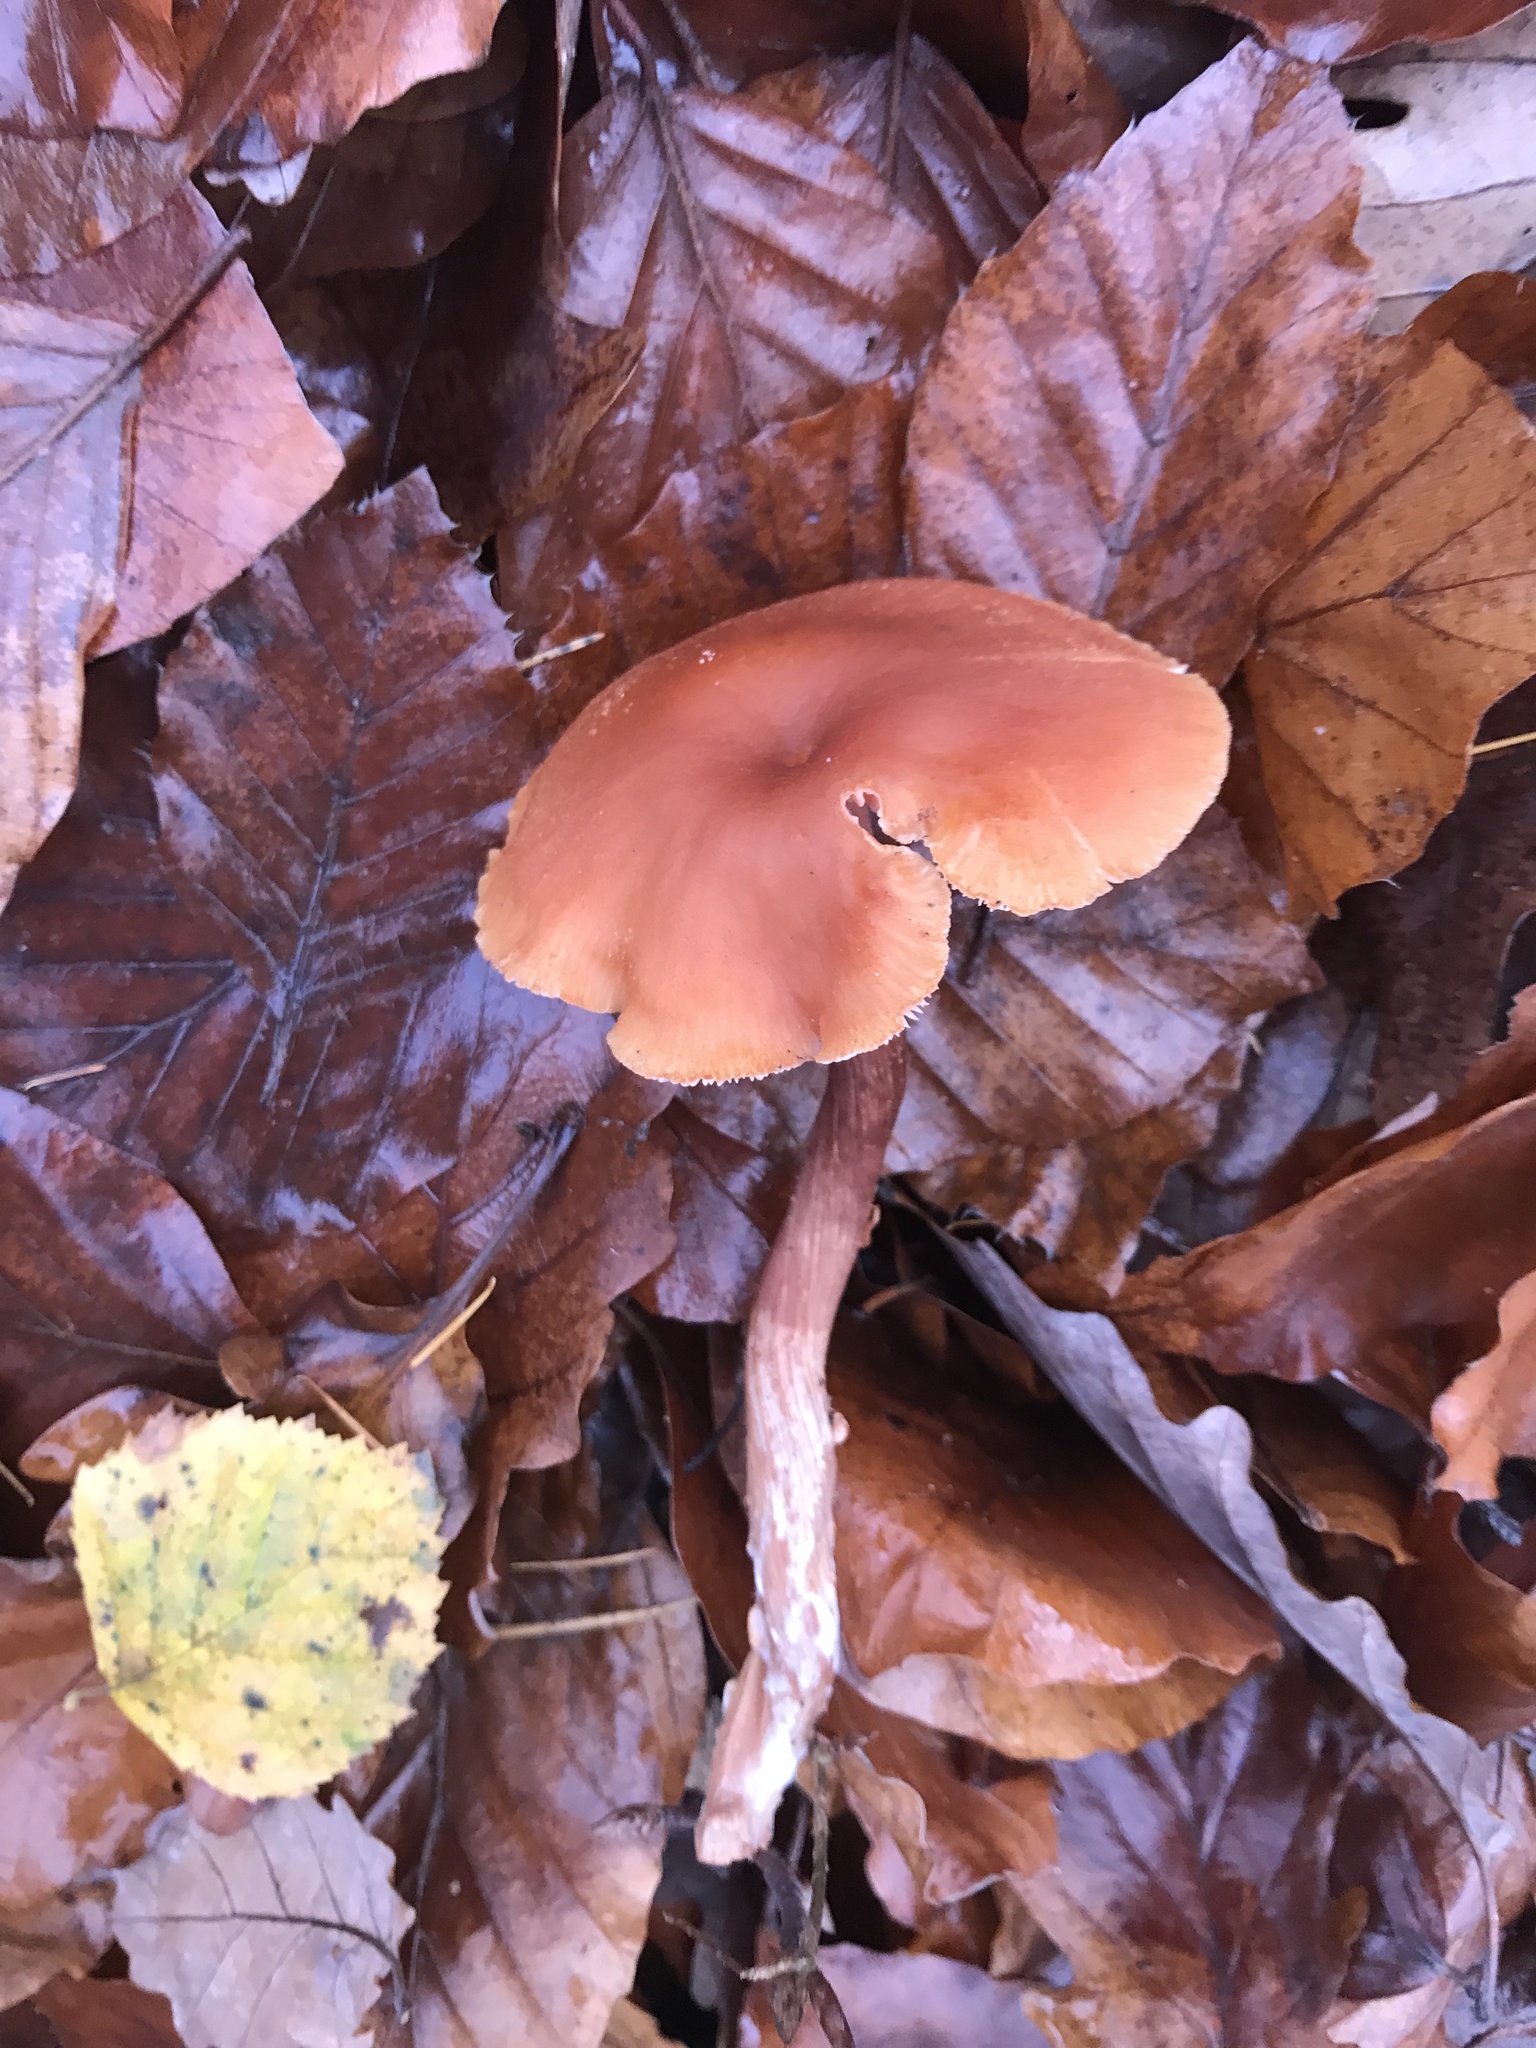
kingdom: Fungi
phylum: Basidiomycota
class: Agaricomycetes
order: Agaricales
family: Hydnangiaceae
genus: Laccaria
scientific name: Laccaria laccata
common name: Deceiver
